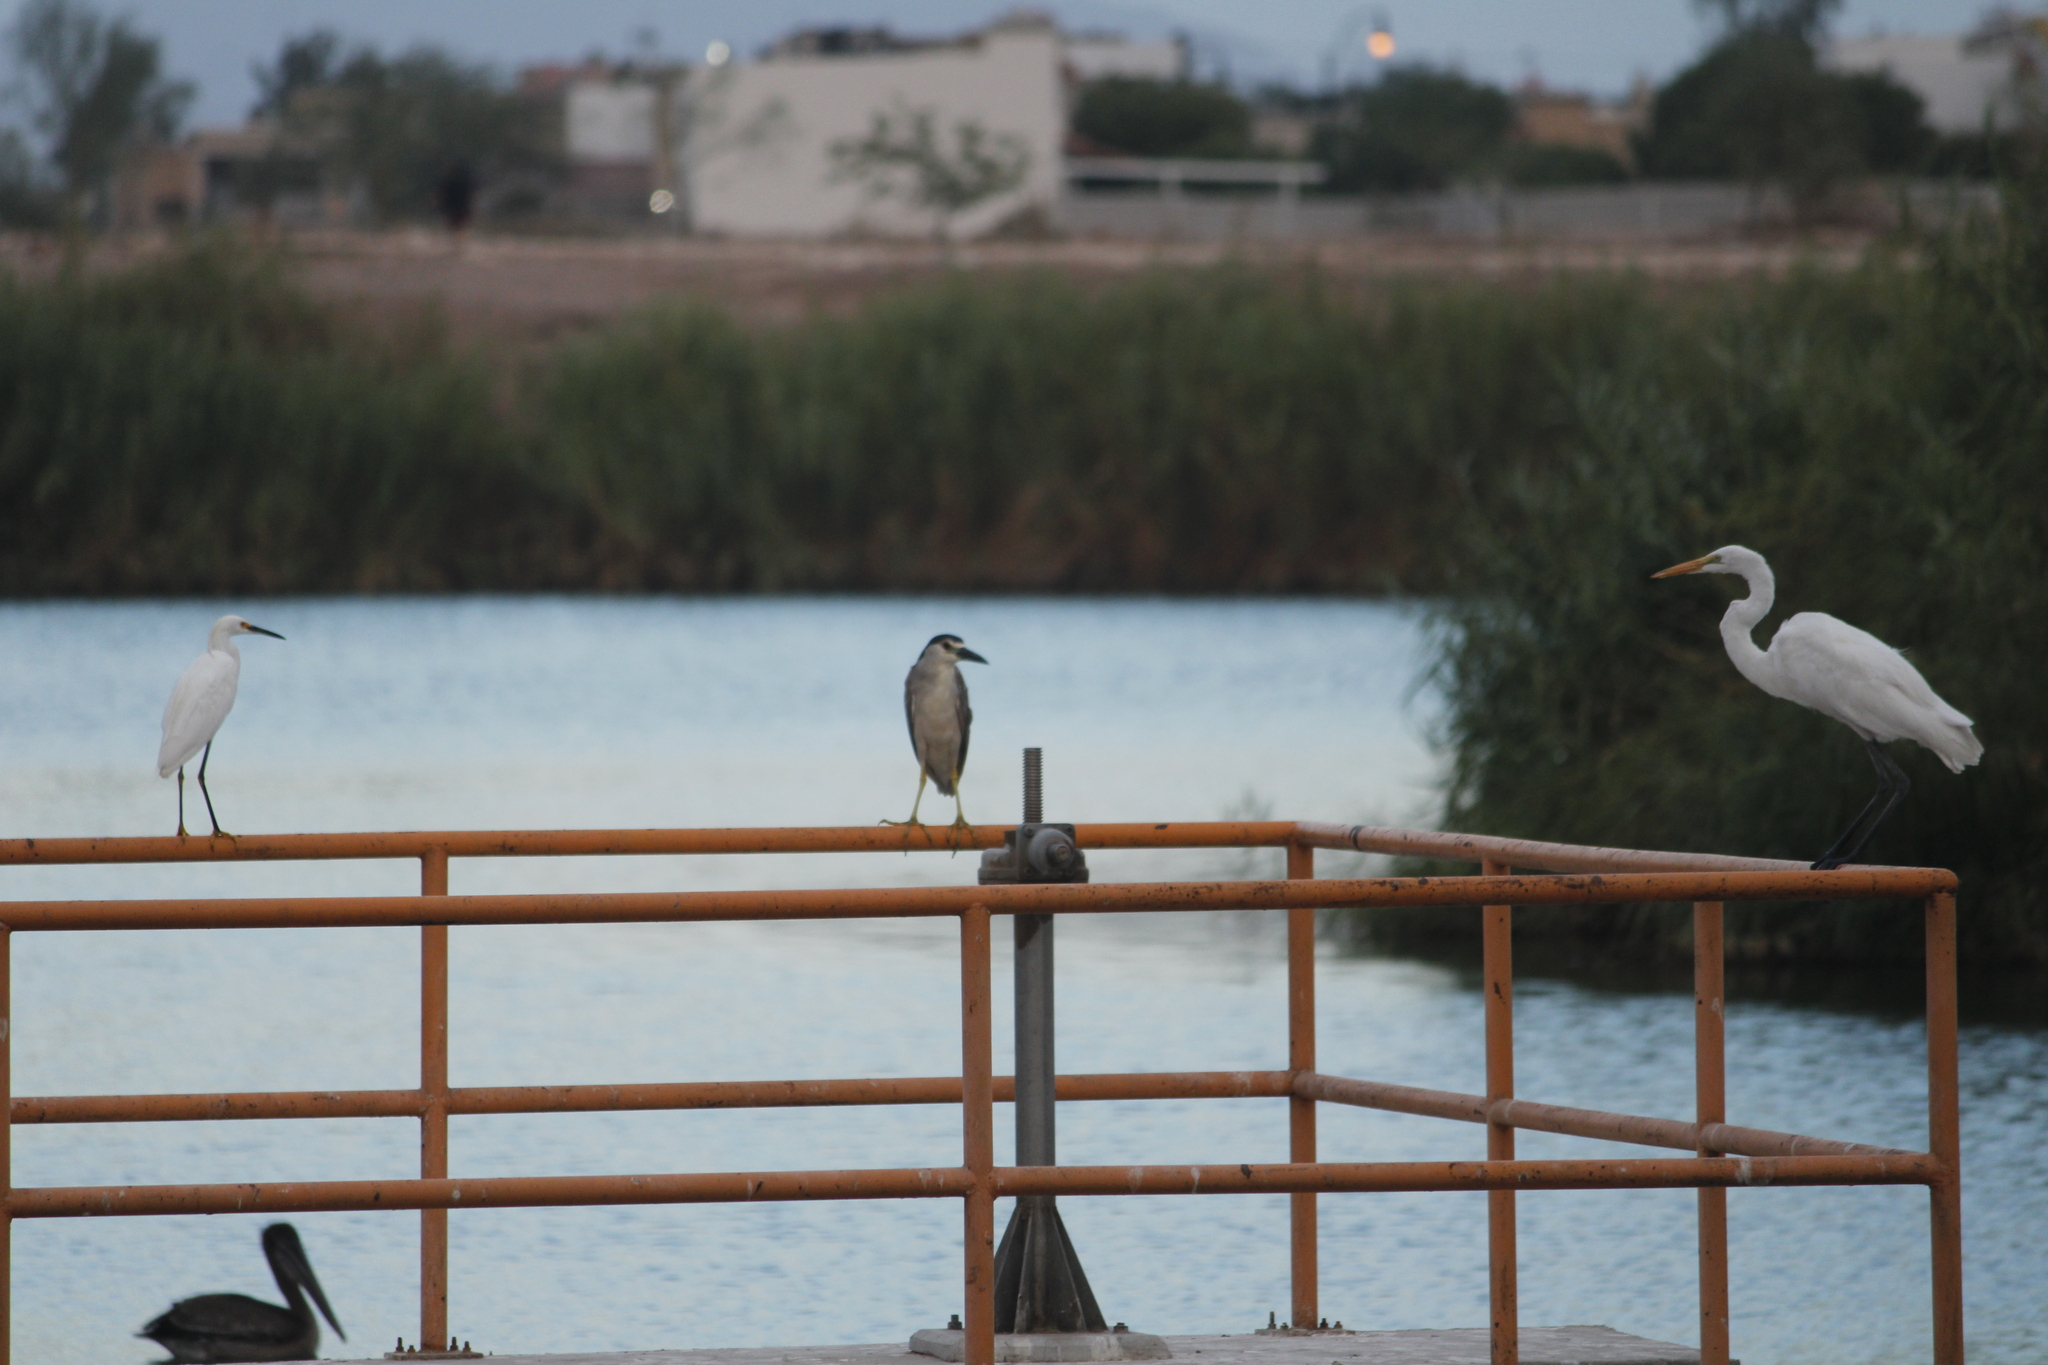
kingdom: Animalia
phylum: Chordata
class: Aves
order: Pelecaniformes
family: Ardeidae
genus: Ardea
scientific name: Ardea alba
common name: Great egret
